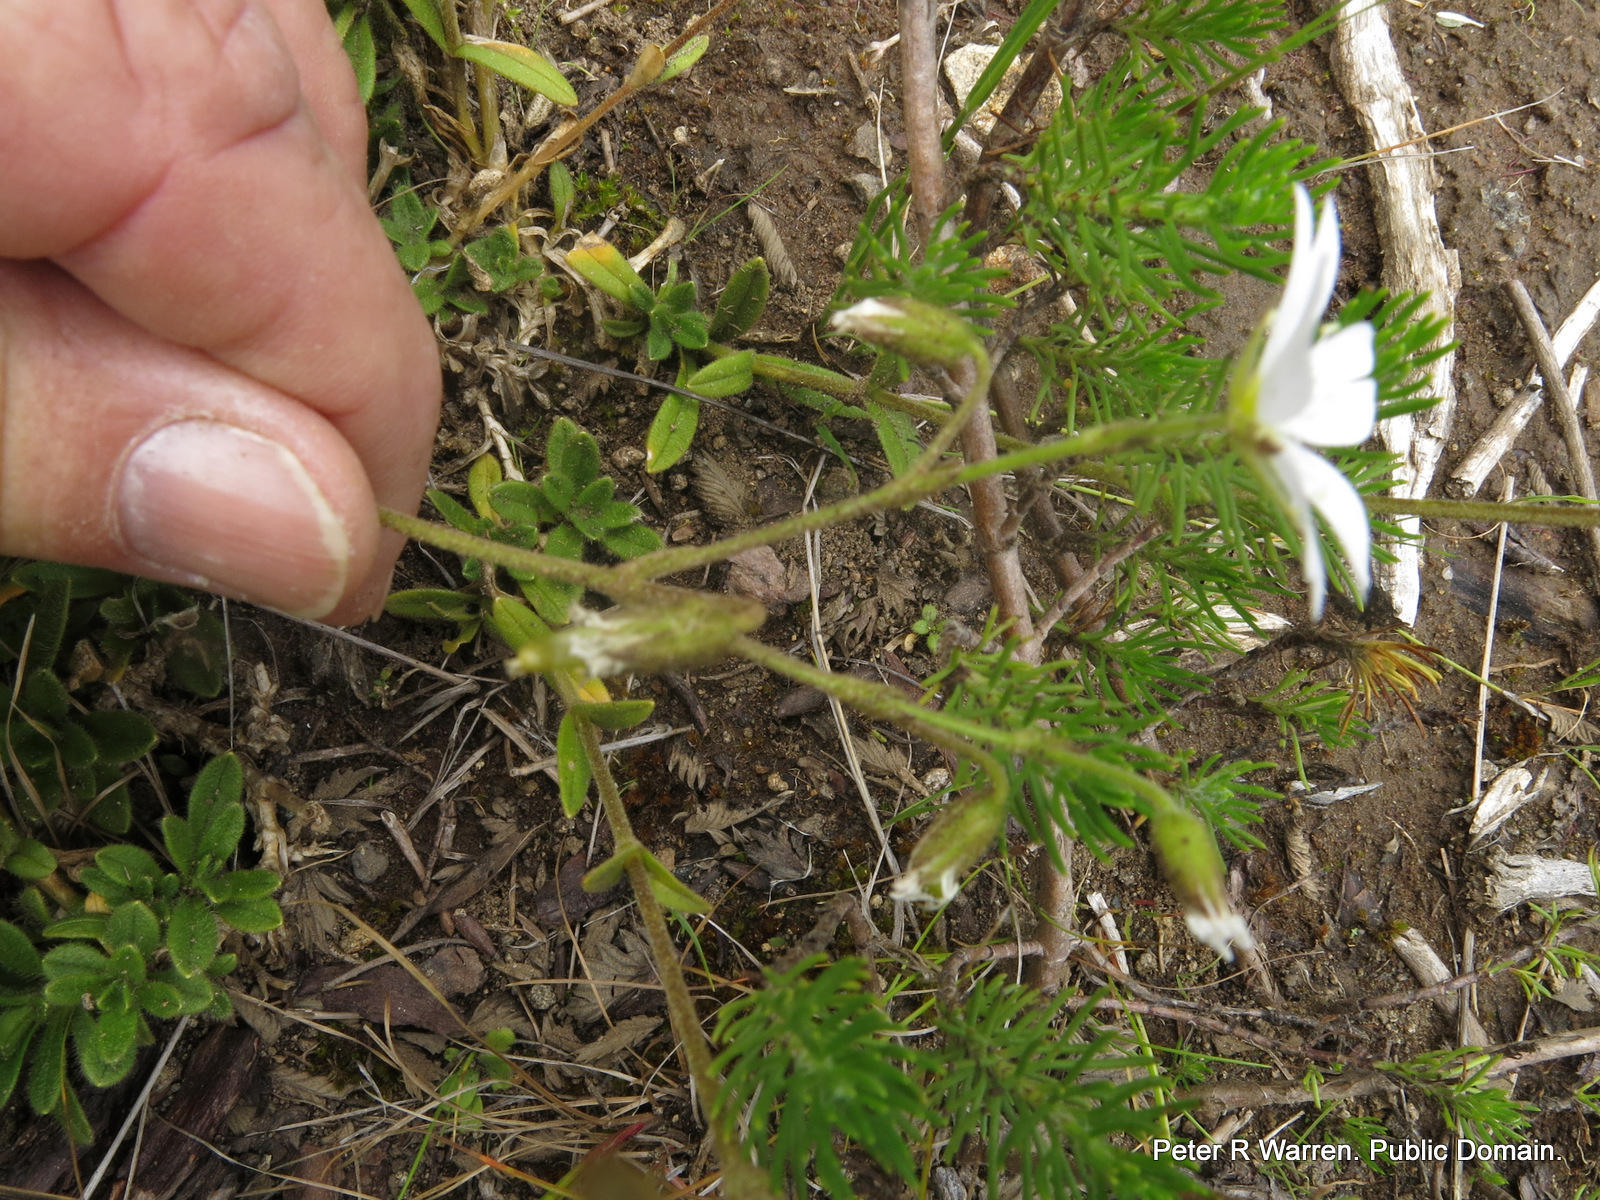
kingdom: Plantae
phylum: Tracheophyta
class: Magnoliopsida
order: Caryophyllales
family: Caryophyllaceae
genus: Cerastium
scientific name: Cerastium arabidis
